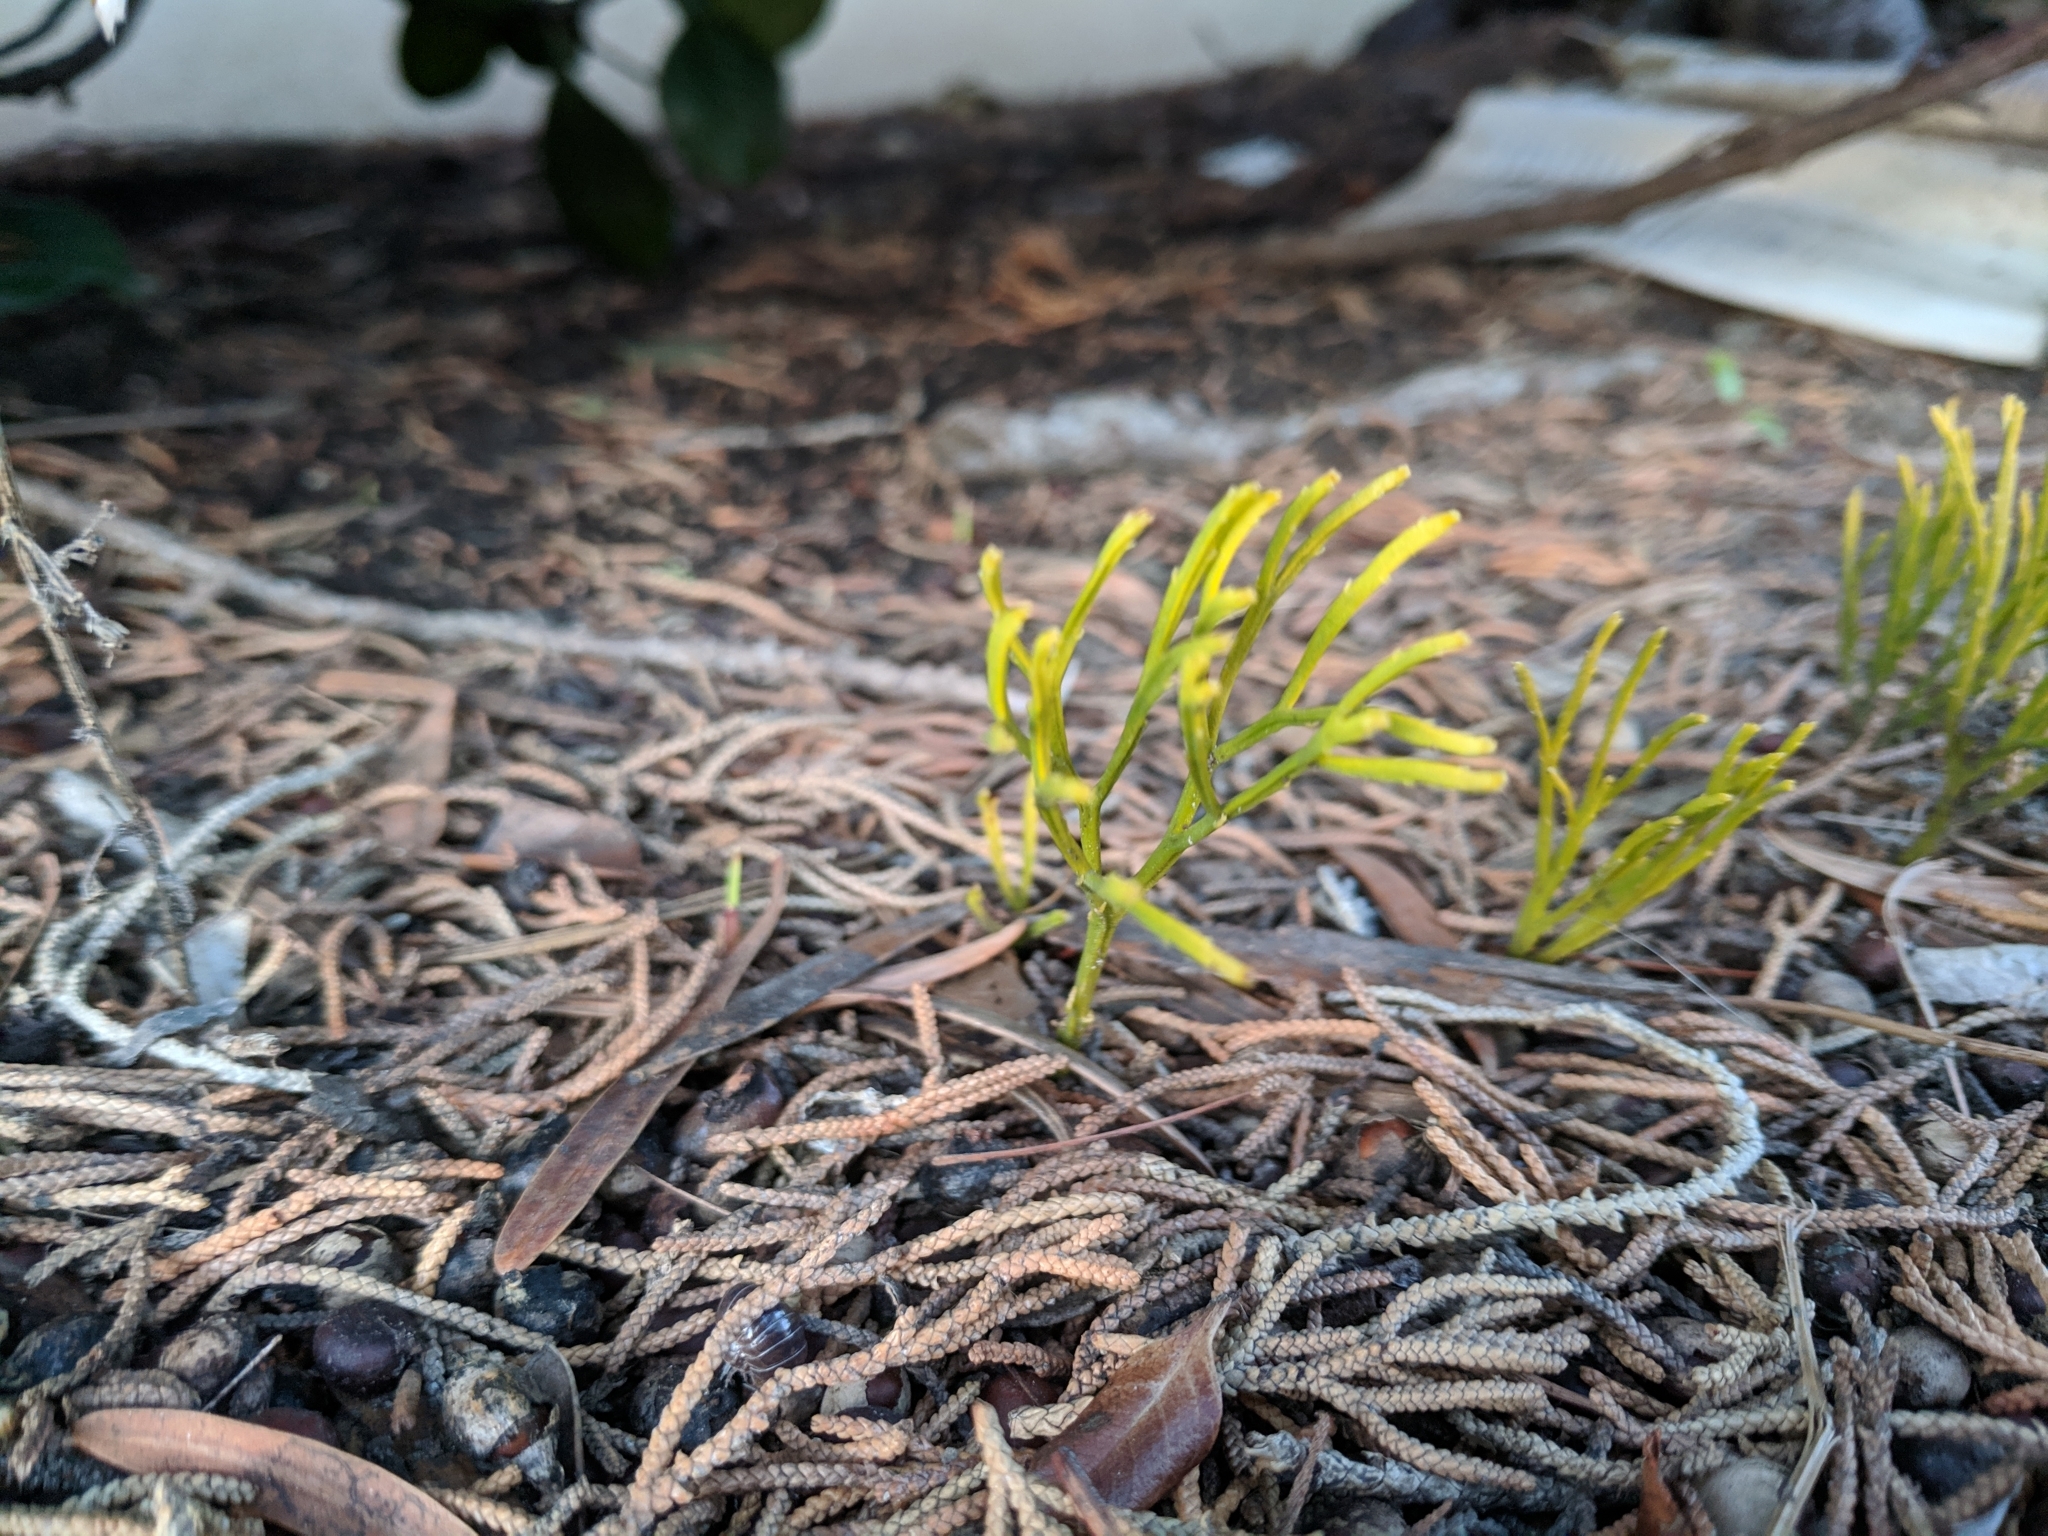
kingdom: Plantae
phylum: Tracheophyta
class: Polypodiopsida
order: Psilotales
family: Psilotaceae
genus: Psilotum
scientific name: Psilotum nudum
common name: Skeleton fork fern
